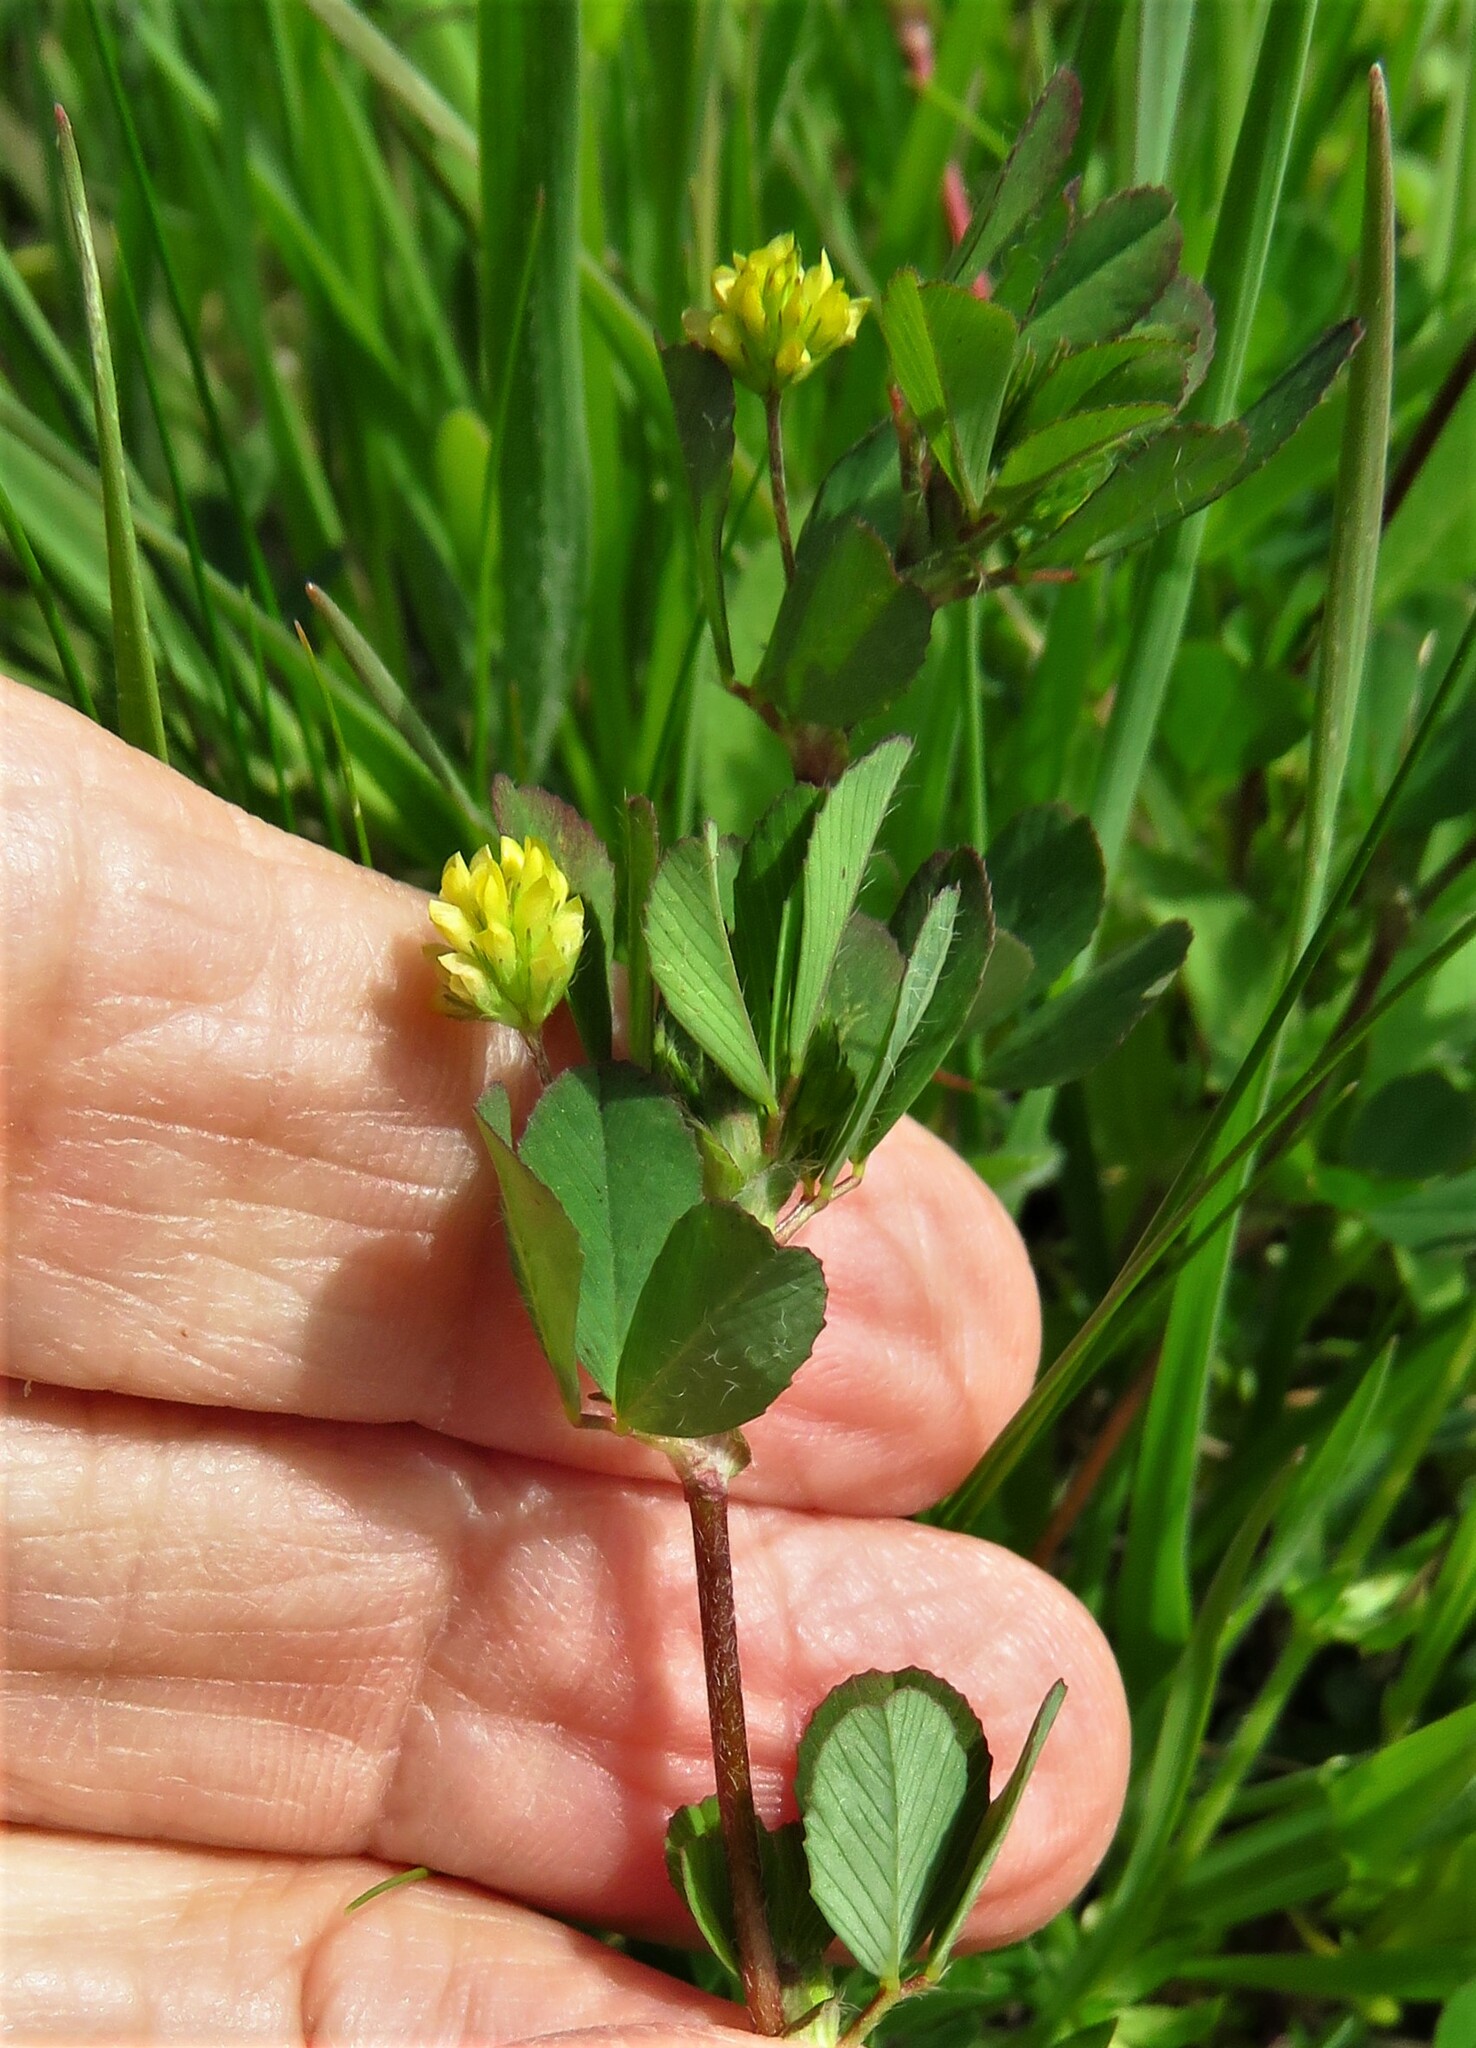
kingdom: Plantae
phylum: Tracheophyta
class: Magnoliopsida
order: Fabales
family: Fabaceae
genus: Trifolium
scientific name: Trifolium dubium
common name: Suckling clover
